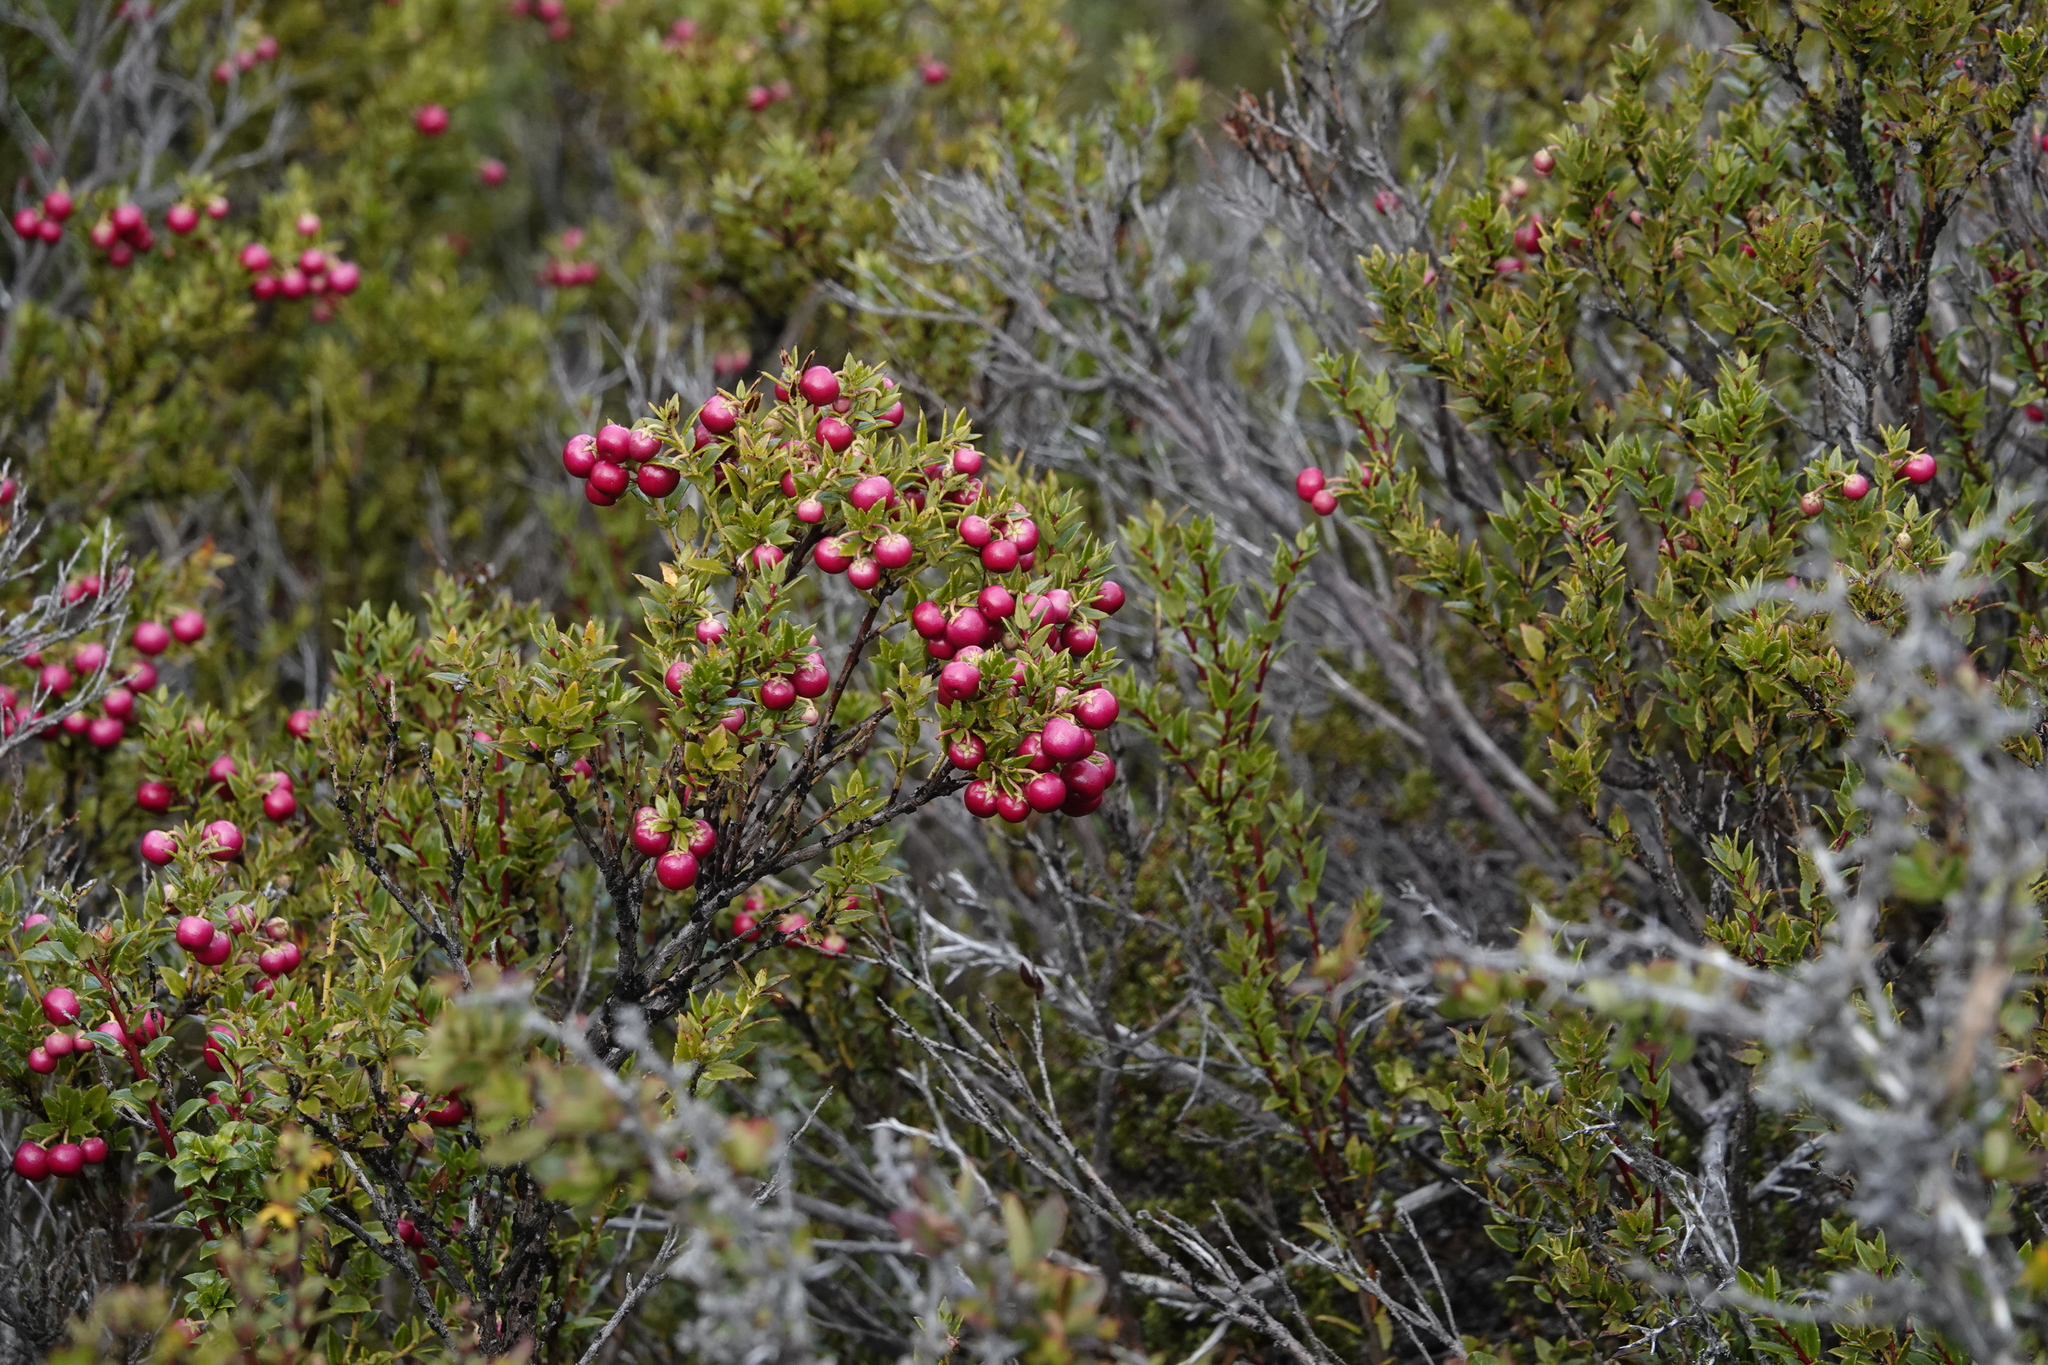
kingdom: Plantae
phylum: Tracheophyta
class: Magnoliopsida
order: Ericales
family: Ericaceae
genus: Gaultheria
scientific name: Gaultheria mucronata
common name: Prickly heath
